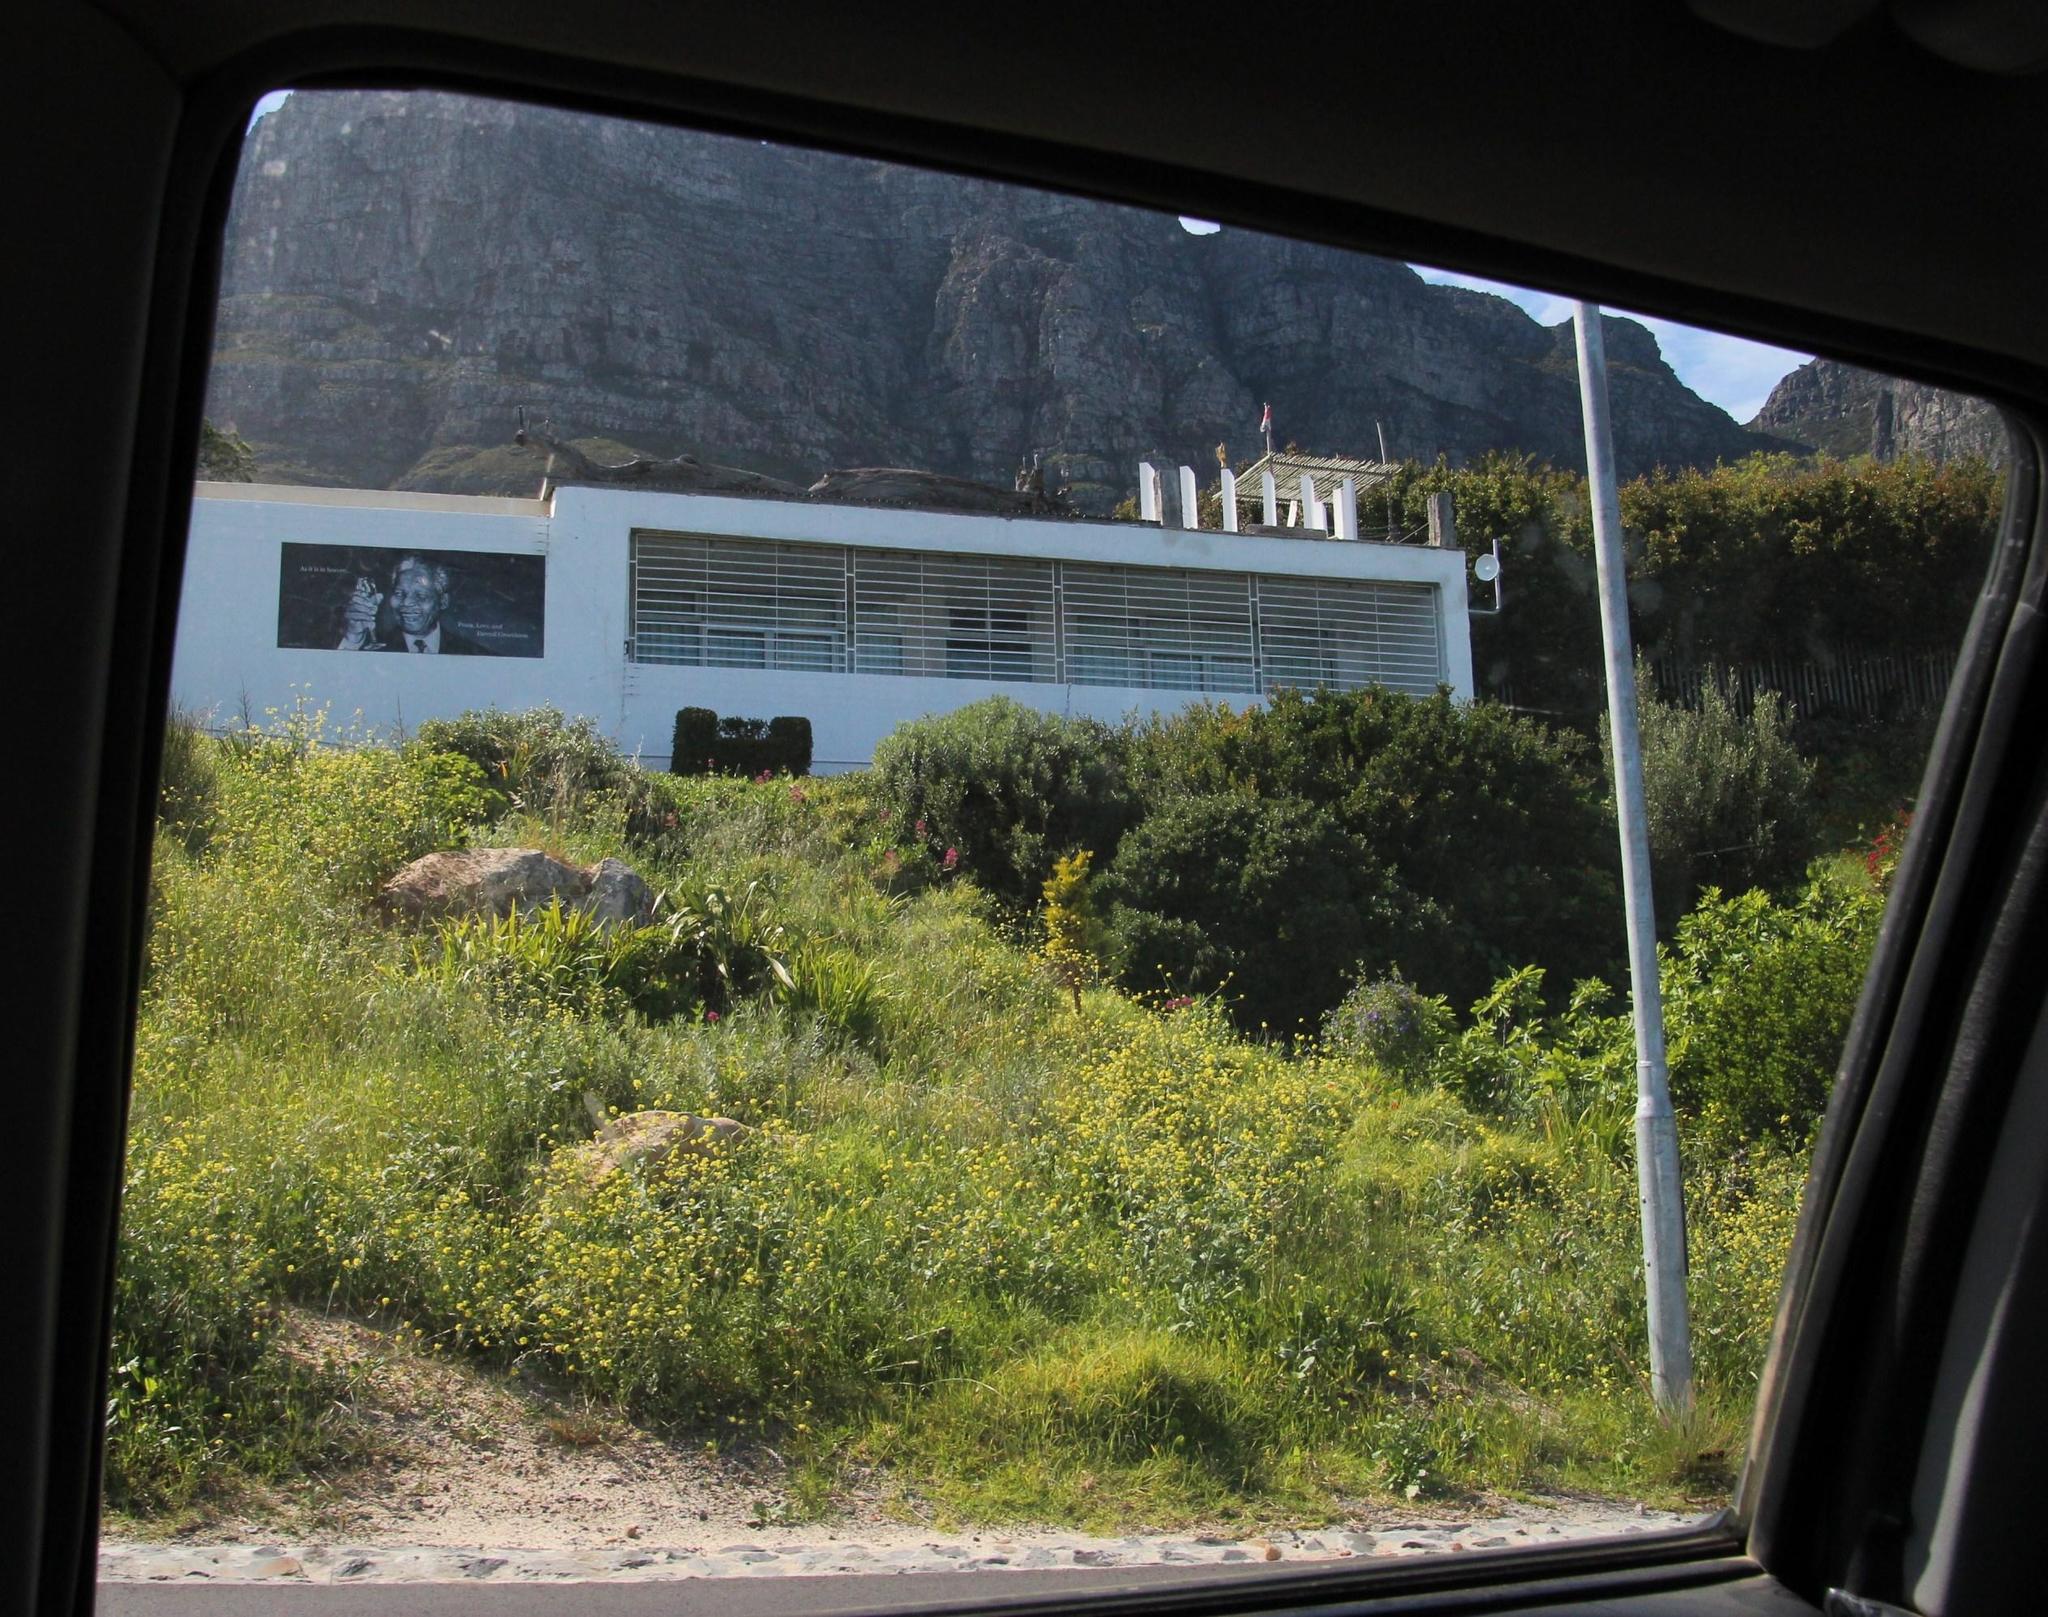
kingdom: Plantae
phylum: Tracheophyta
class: Magnoliopsida
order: Dipsacales
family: Caprifoliaceae
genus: Centranthus
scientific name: Centranthus ruber
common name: Red valerian
